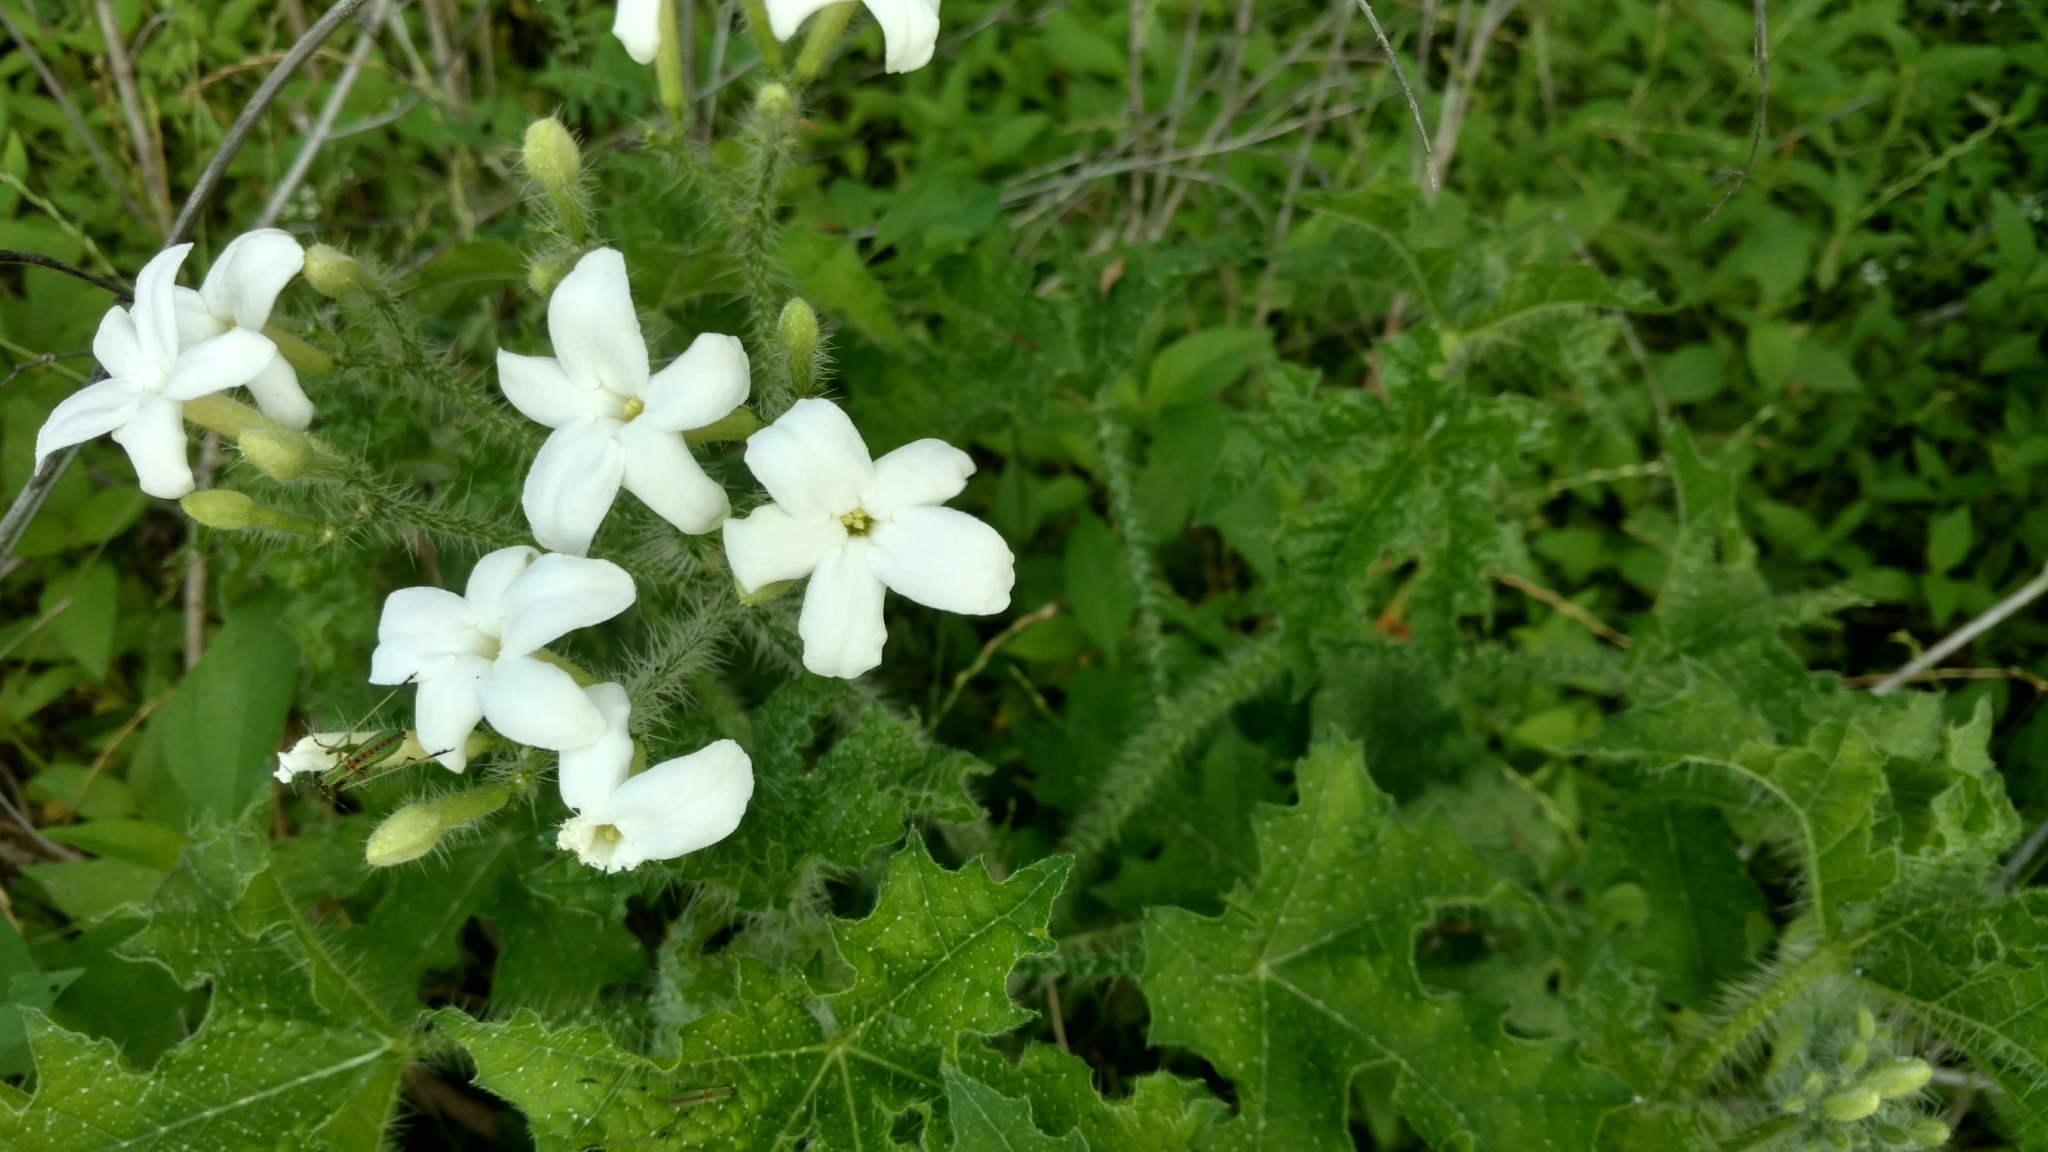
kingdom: Plantae
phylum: Tracheophyta
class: Magnoliopsida
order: Malpighiales
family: Euphorbiaceae
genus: Cnidoscolus
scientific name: Cnidoscolus texanus
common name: Texas bull-nettle
